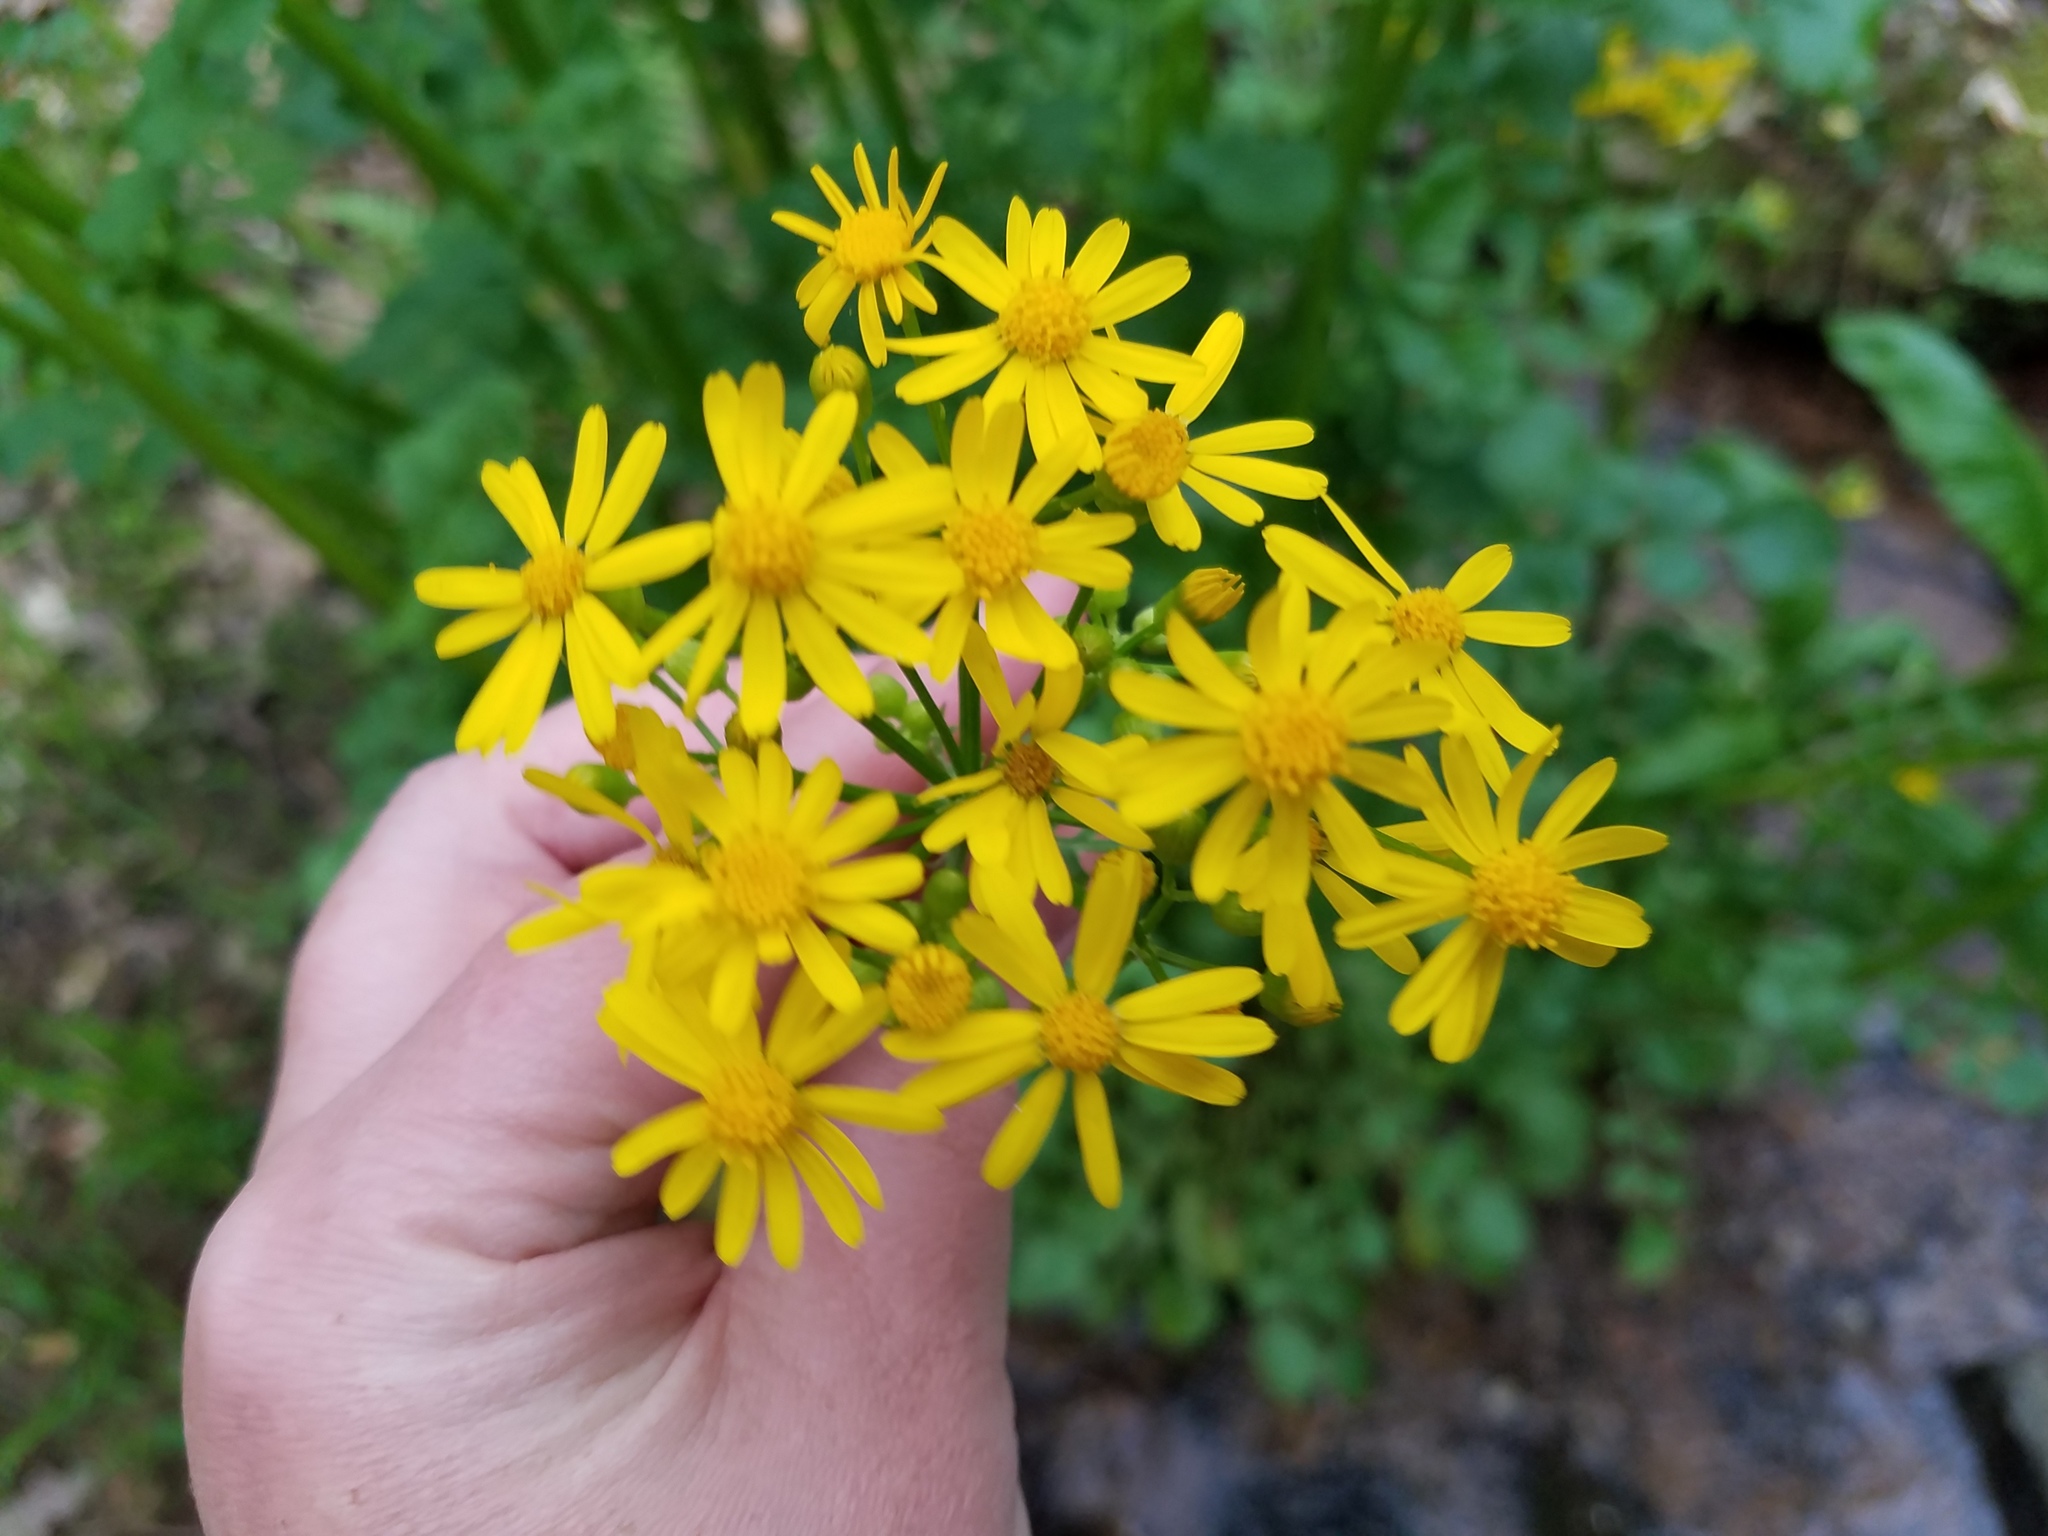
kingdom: Plantae
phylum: Tracheophyta
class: Magnoliopsida
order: Asterales
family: Asteraceae
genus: Packera
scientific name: Packera glabella
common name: Butterweed
